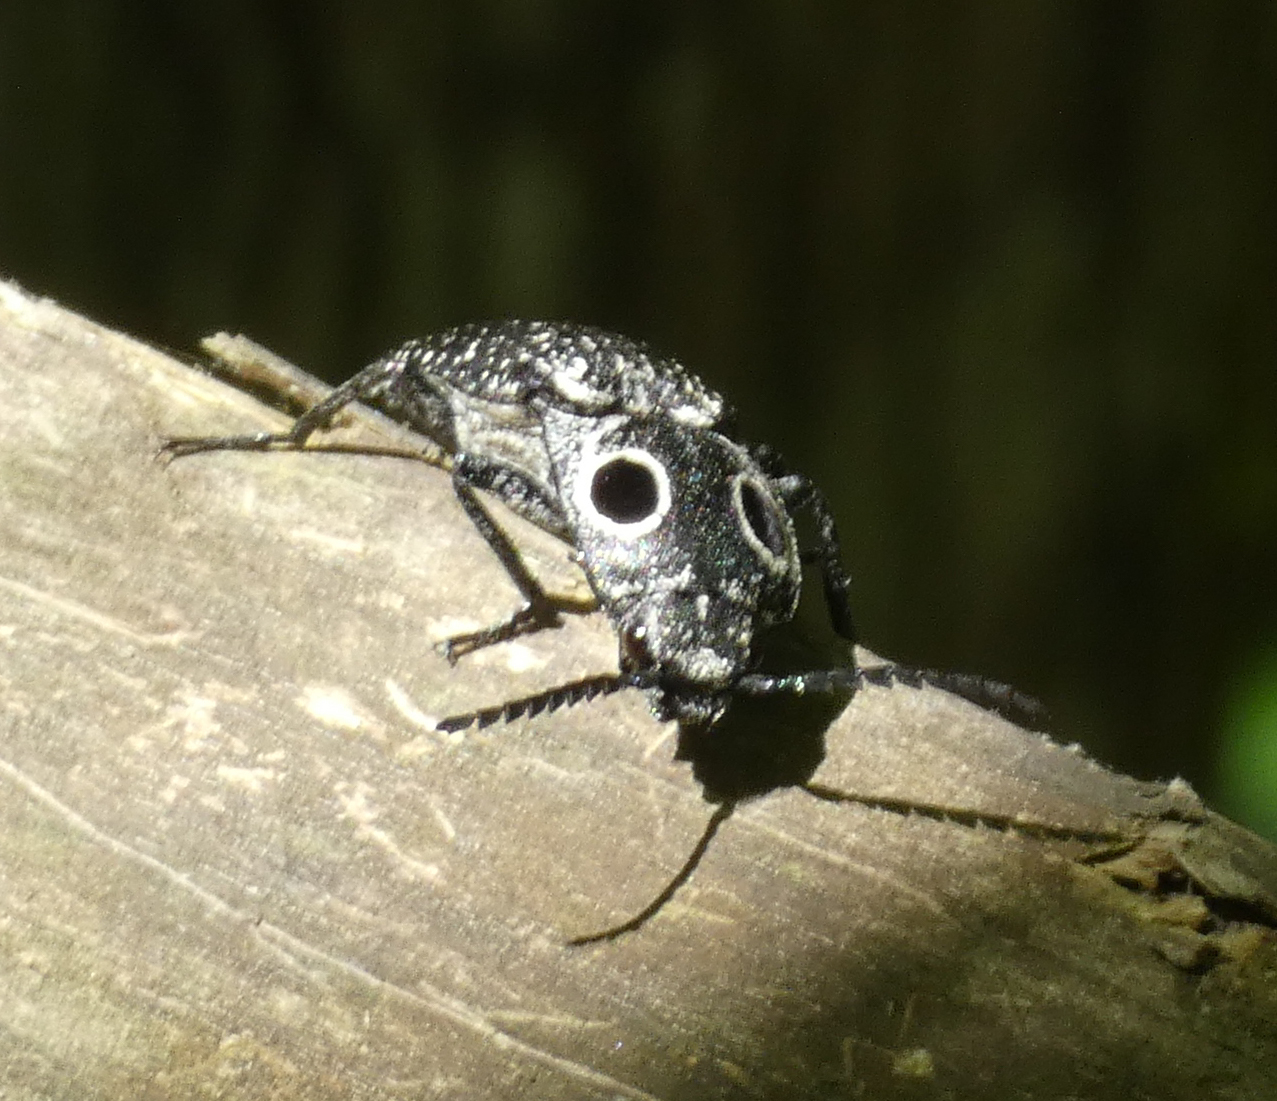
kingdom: Animalia
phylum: Arthropoda
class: Insecta
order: Coleoptera
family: Elateridae
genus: Alaus
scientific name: Alaus oculatus
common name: Eastern eyed click beetle
